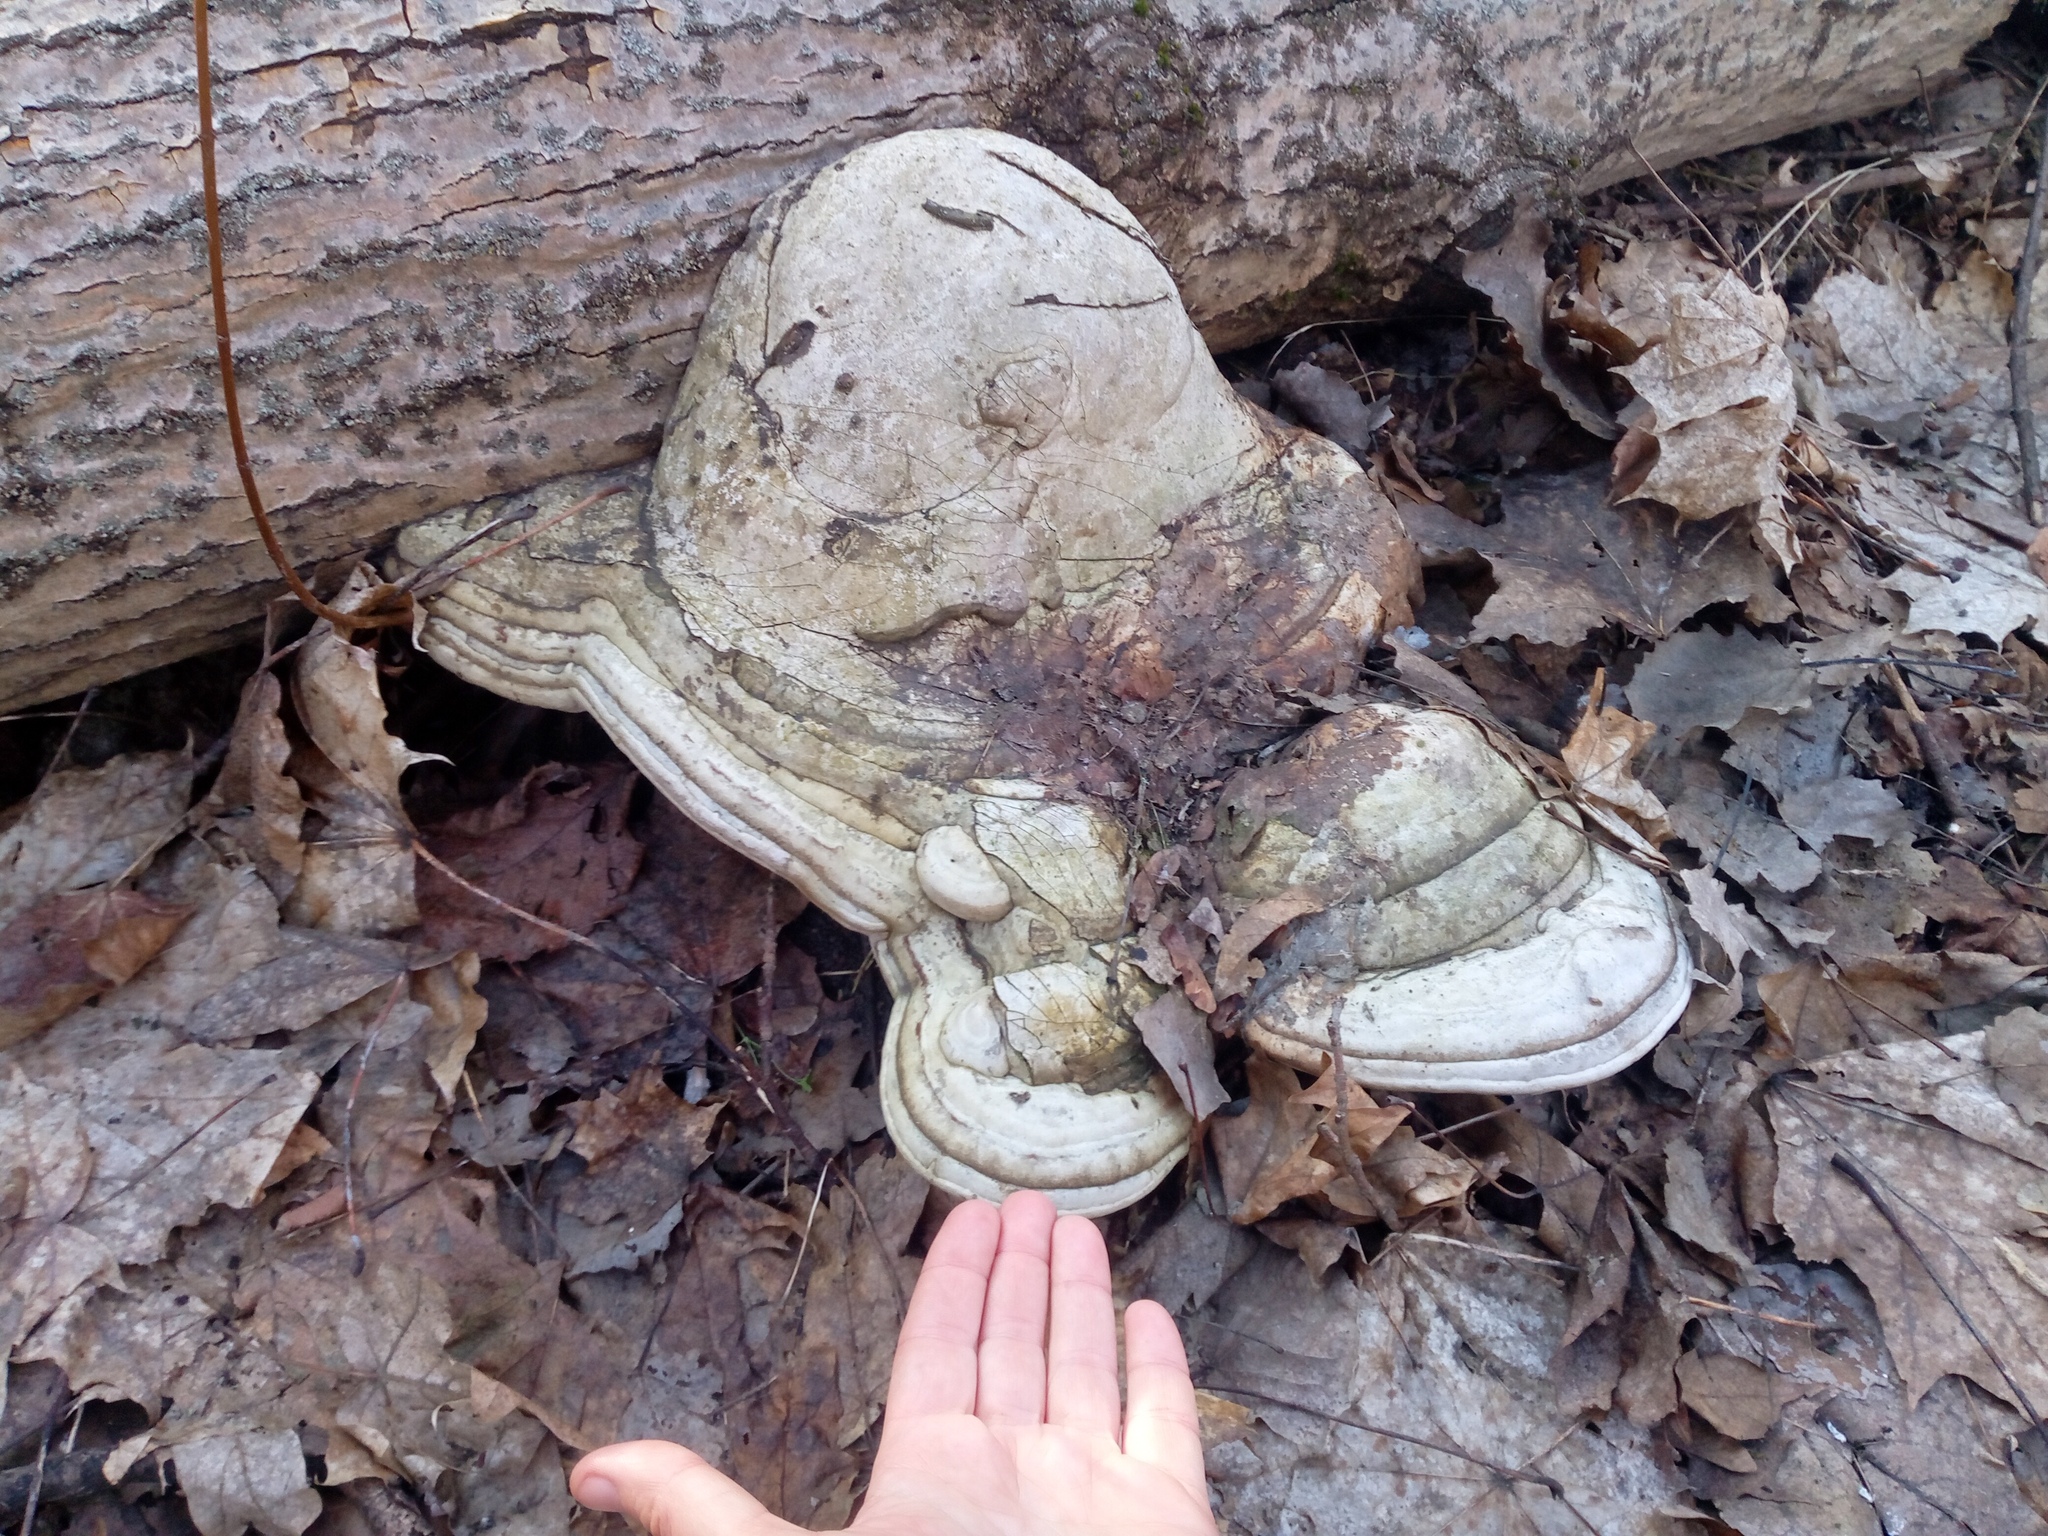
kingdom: Fungi
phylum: Basidiomycota
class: Agaricomycetes
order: Polyporales
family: Polyporaceae
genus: Fomes
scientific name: Fomes fomentarius
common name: Hoof fungus
